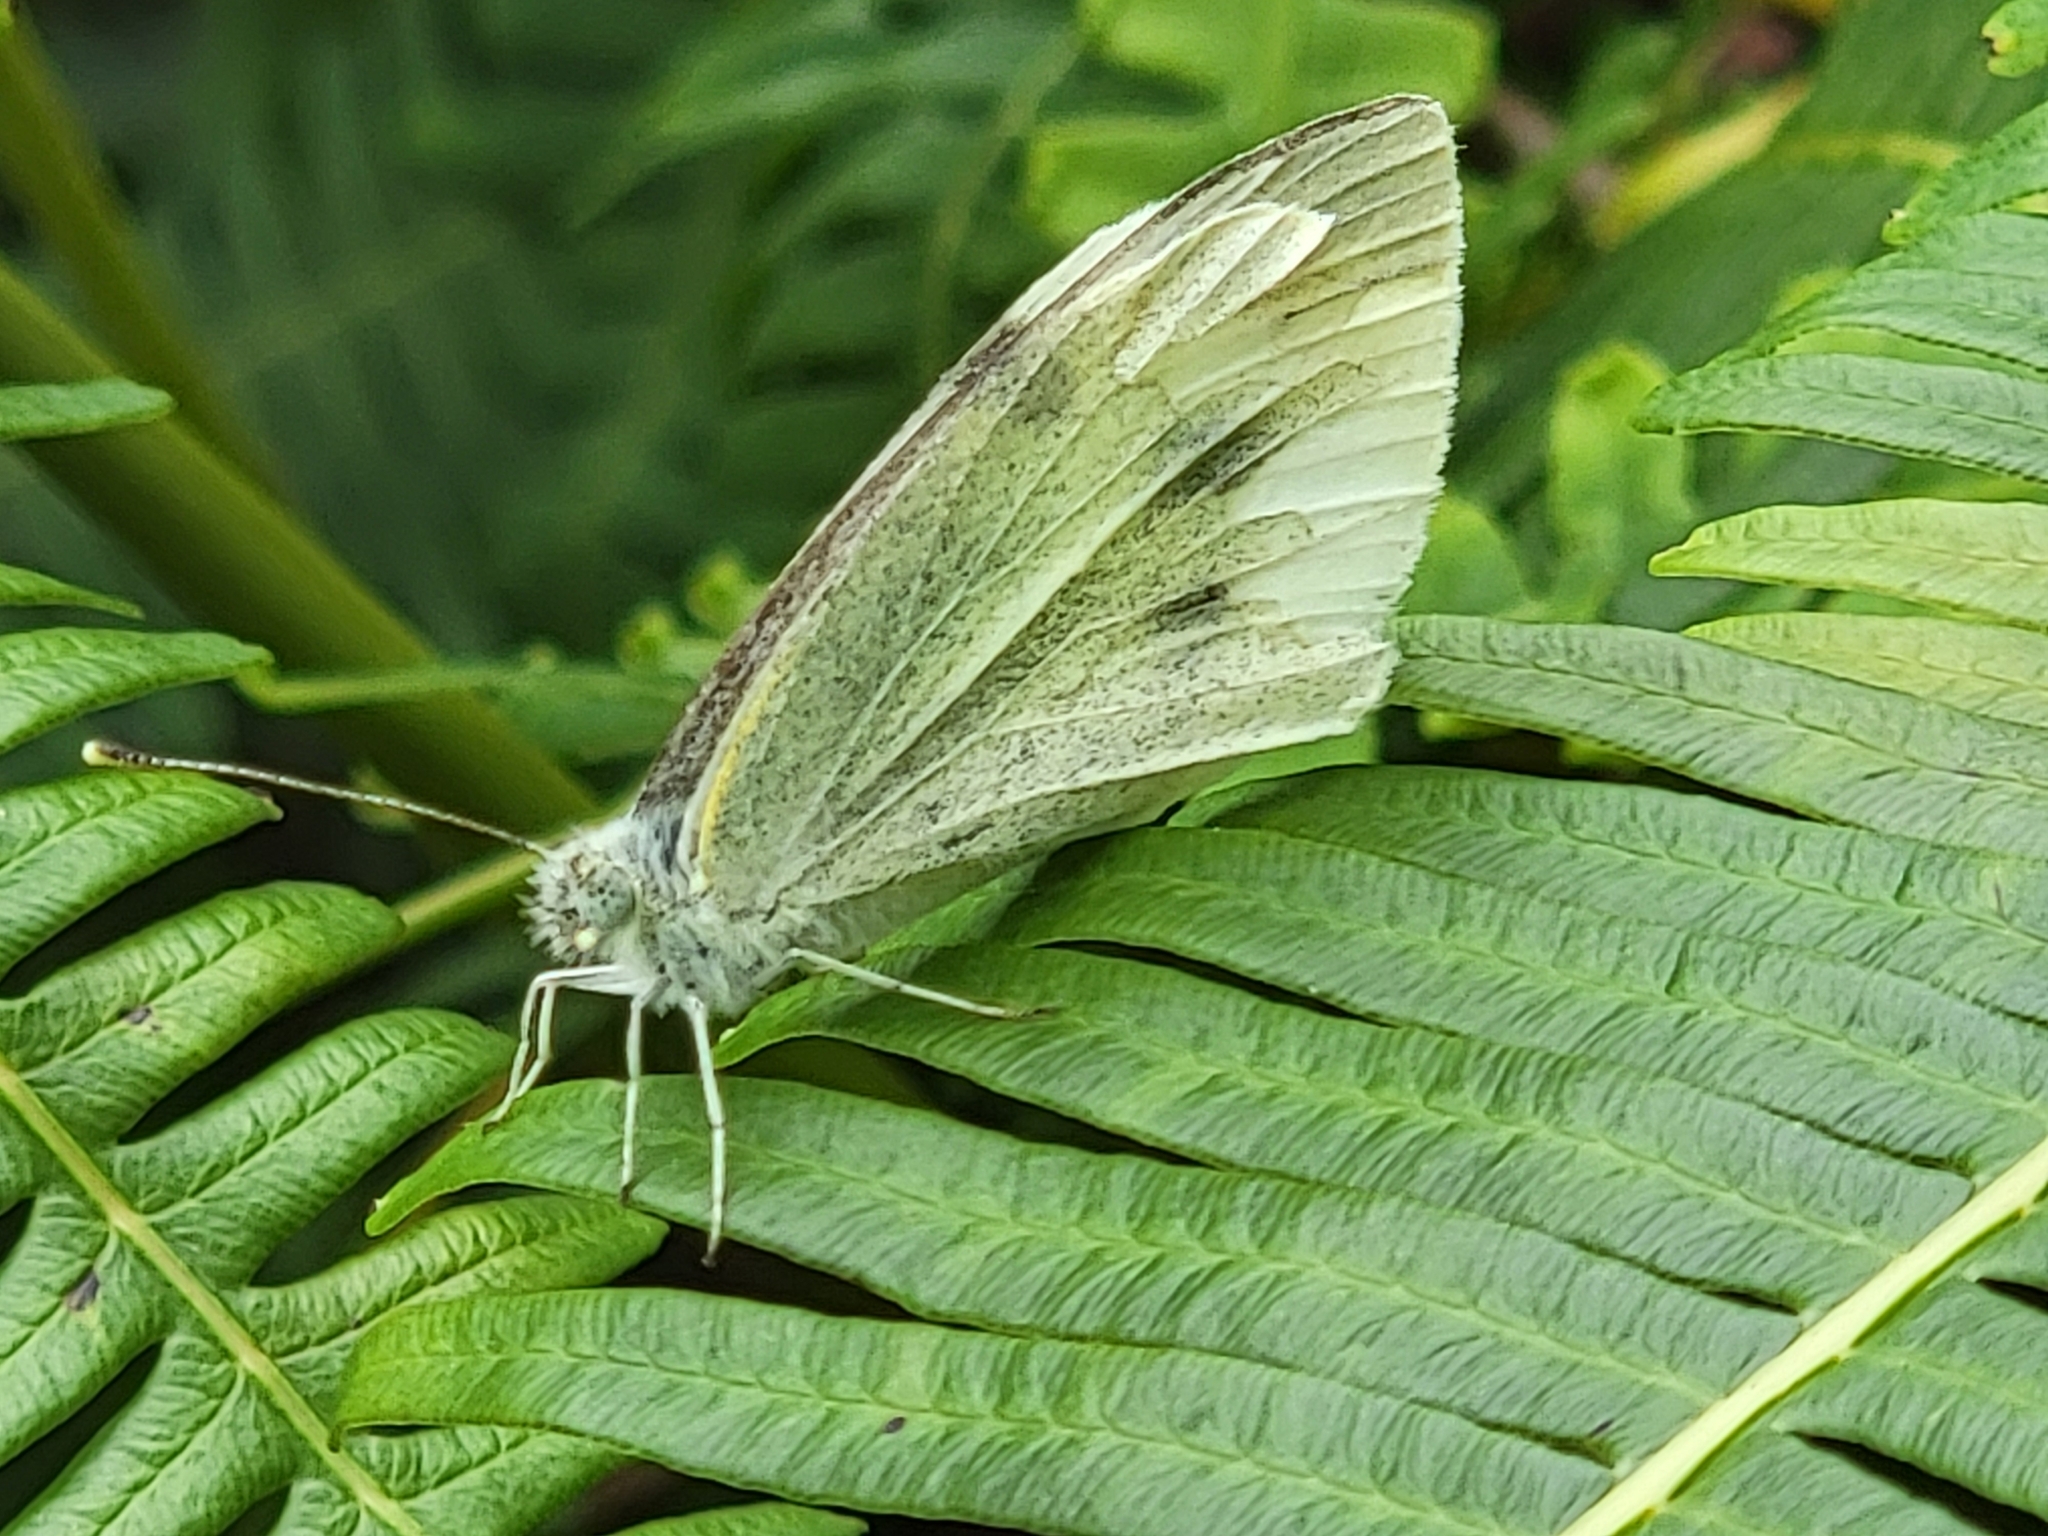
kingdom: Animalia
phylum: Arthropoda
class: Insecta
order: Lepidoptera
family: Pieridae
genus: Pieris
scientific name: Pieris rapae
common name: Small white
